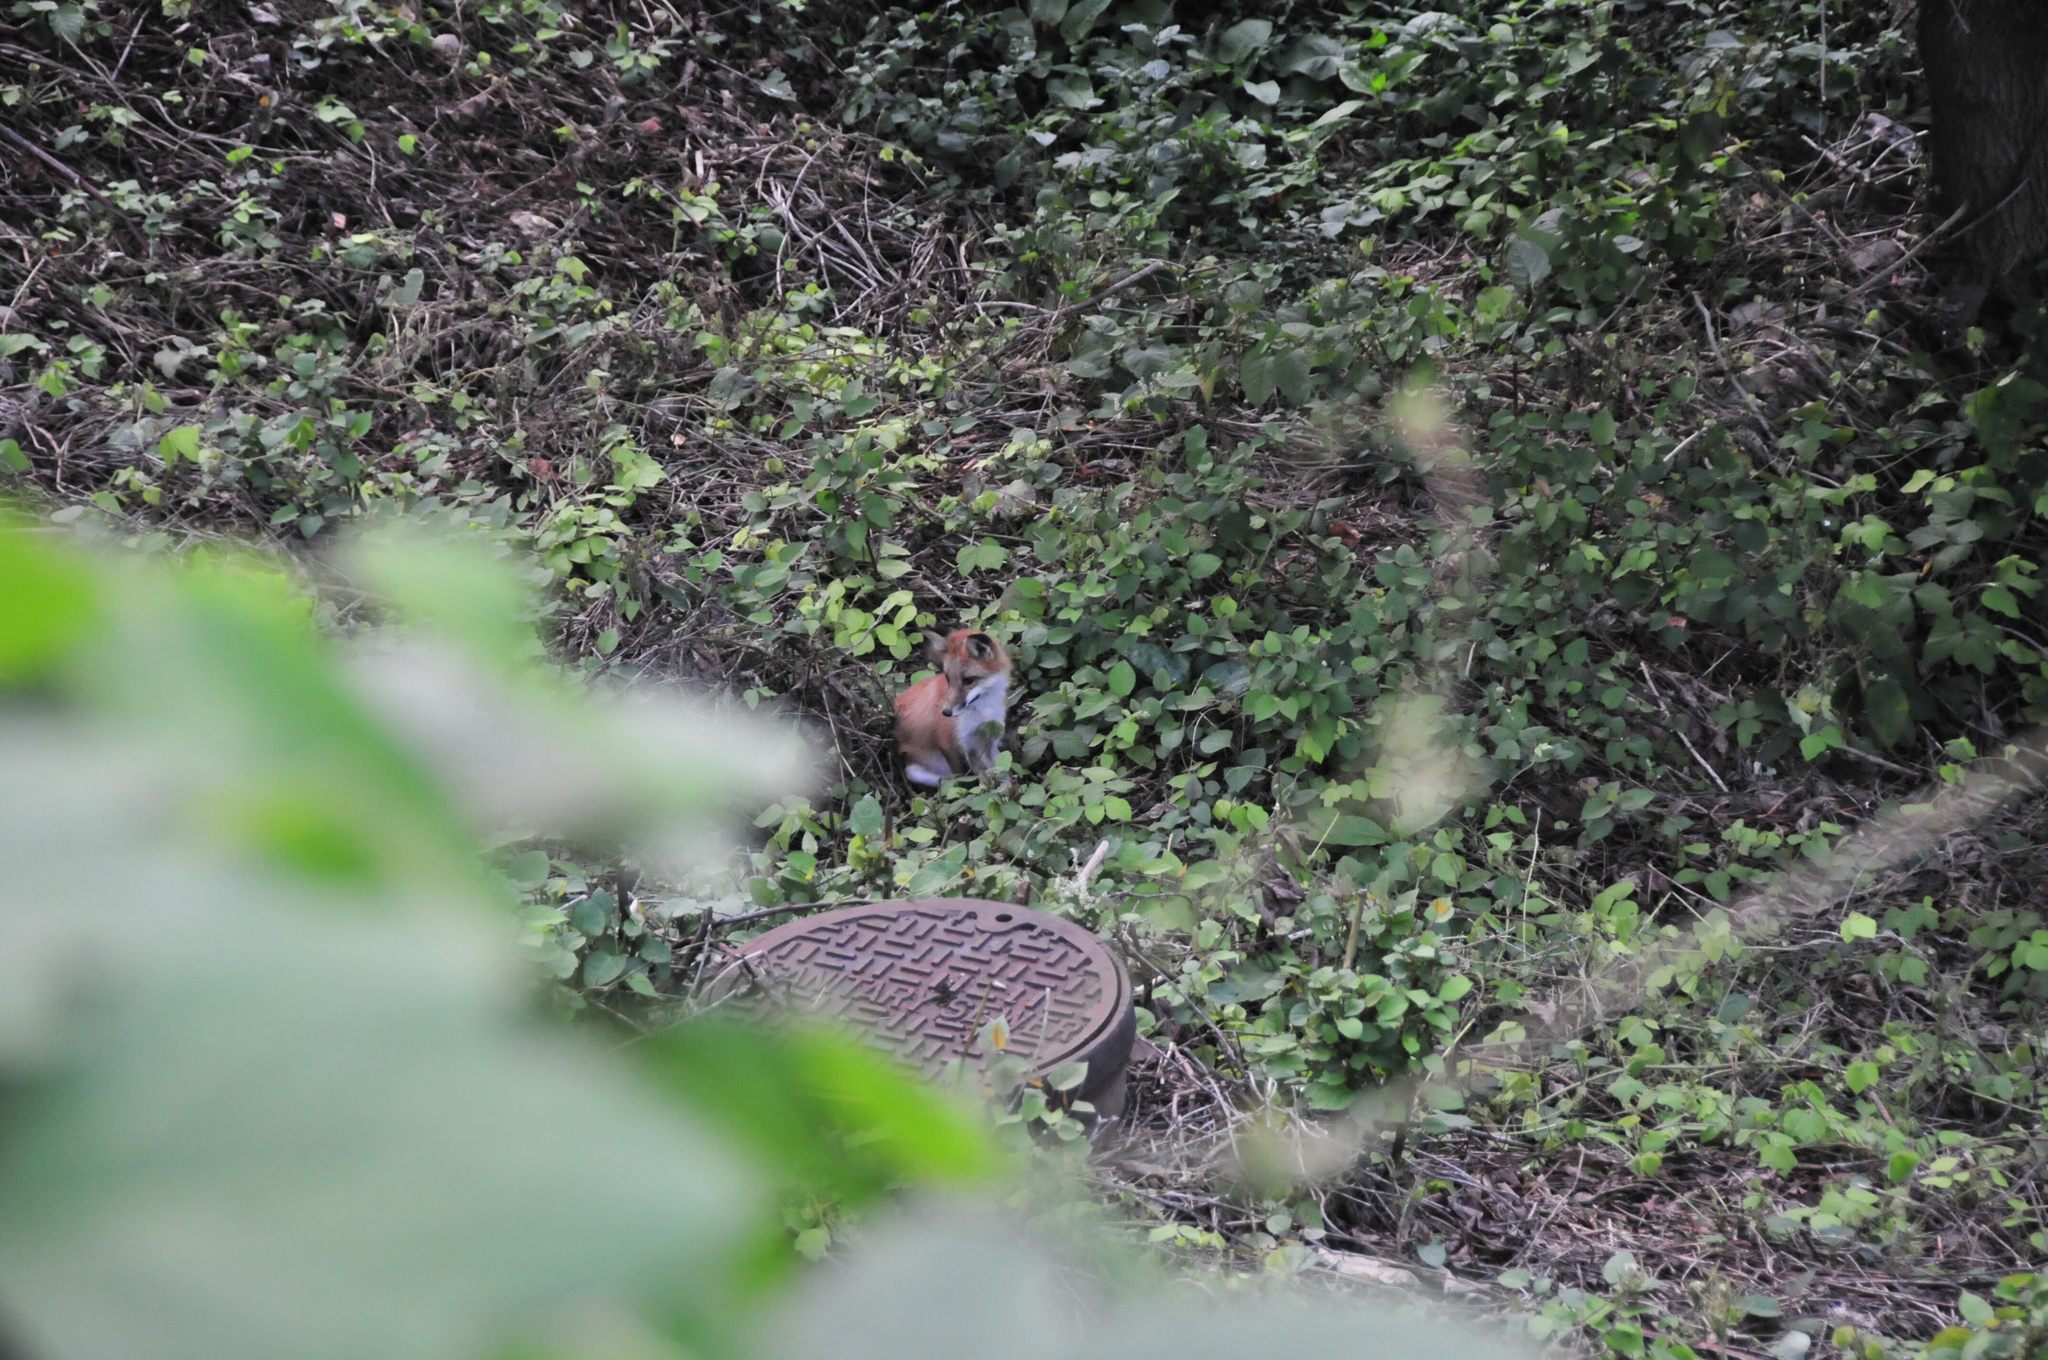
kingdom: Animalia
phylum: Chordata
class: Mammalia
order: Carnivora
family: Canidae
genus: Vulpes
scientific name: Vulpes vulpes
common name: Red fox
